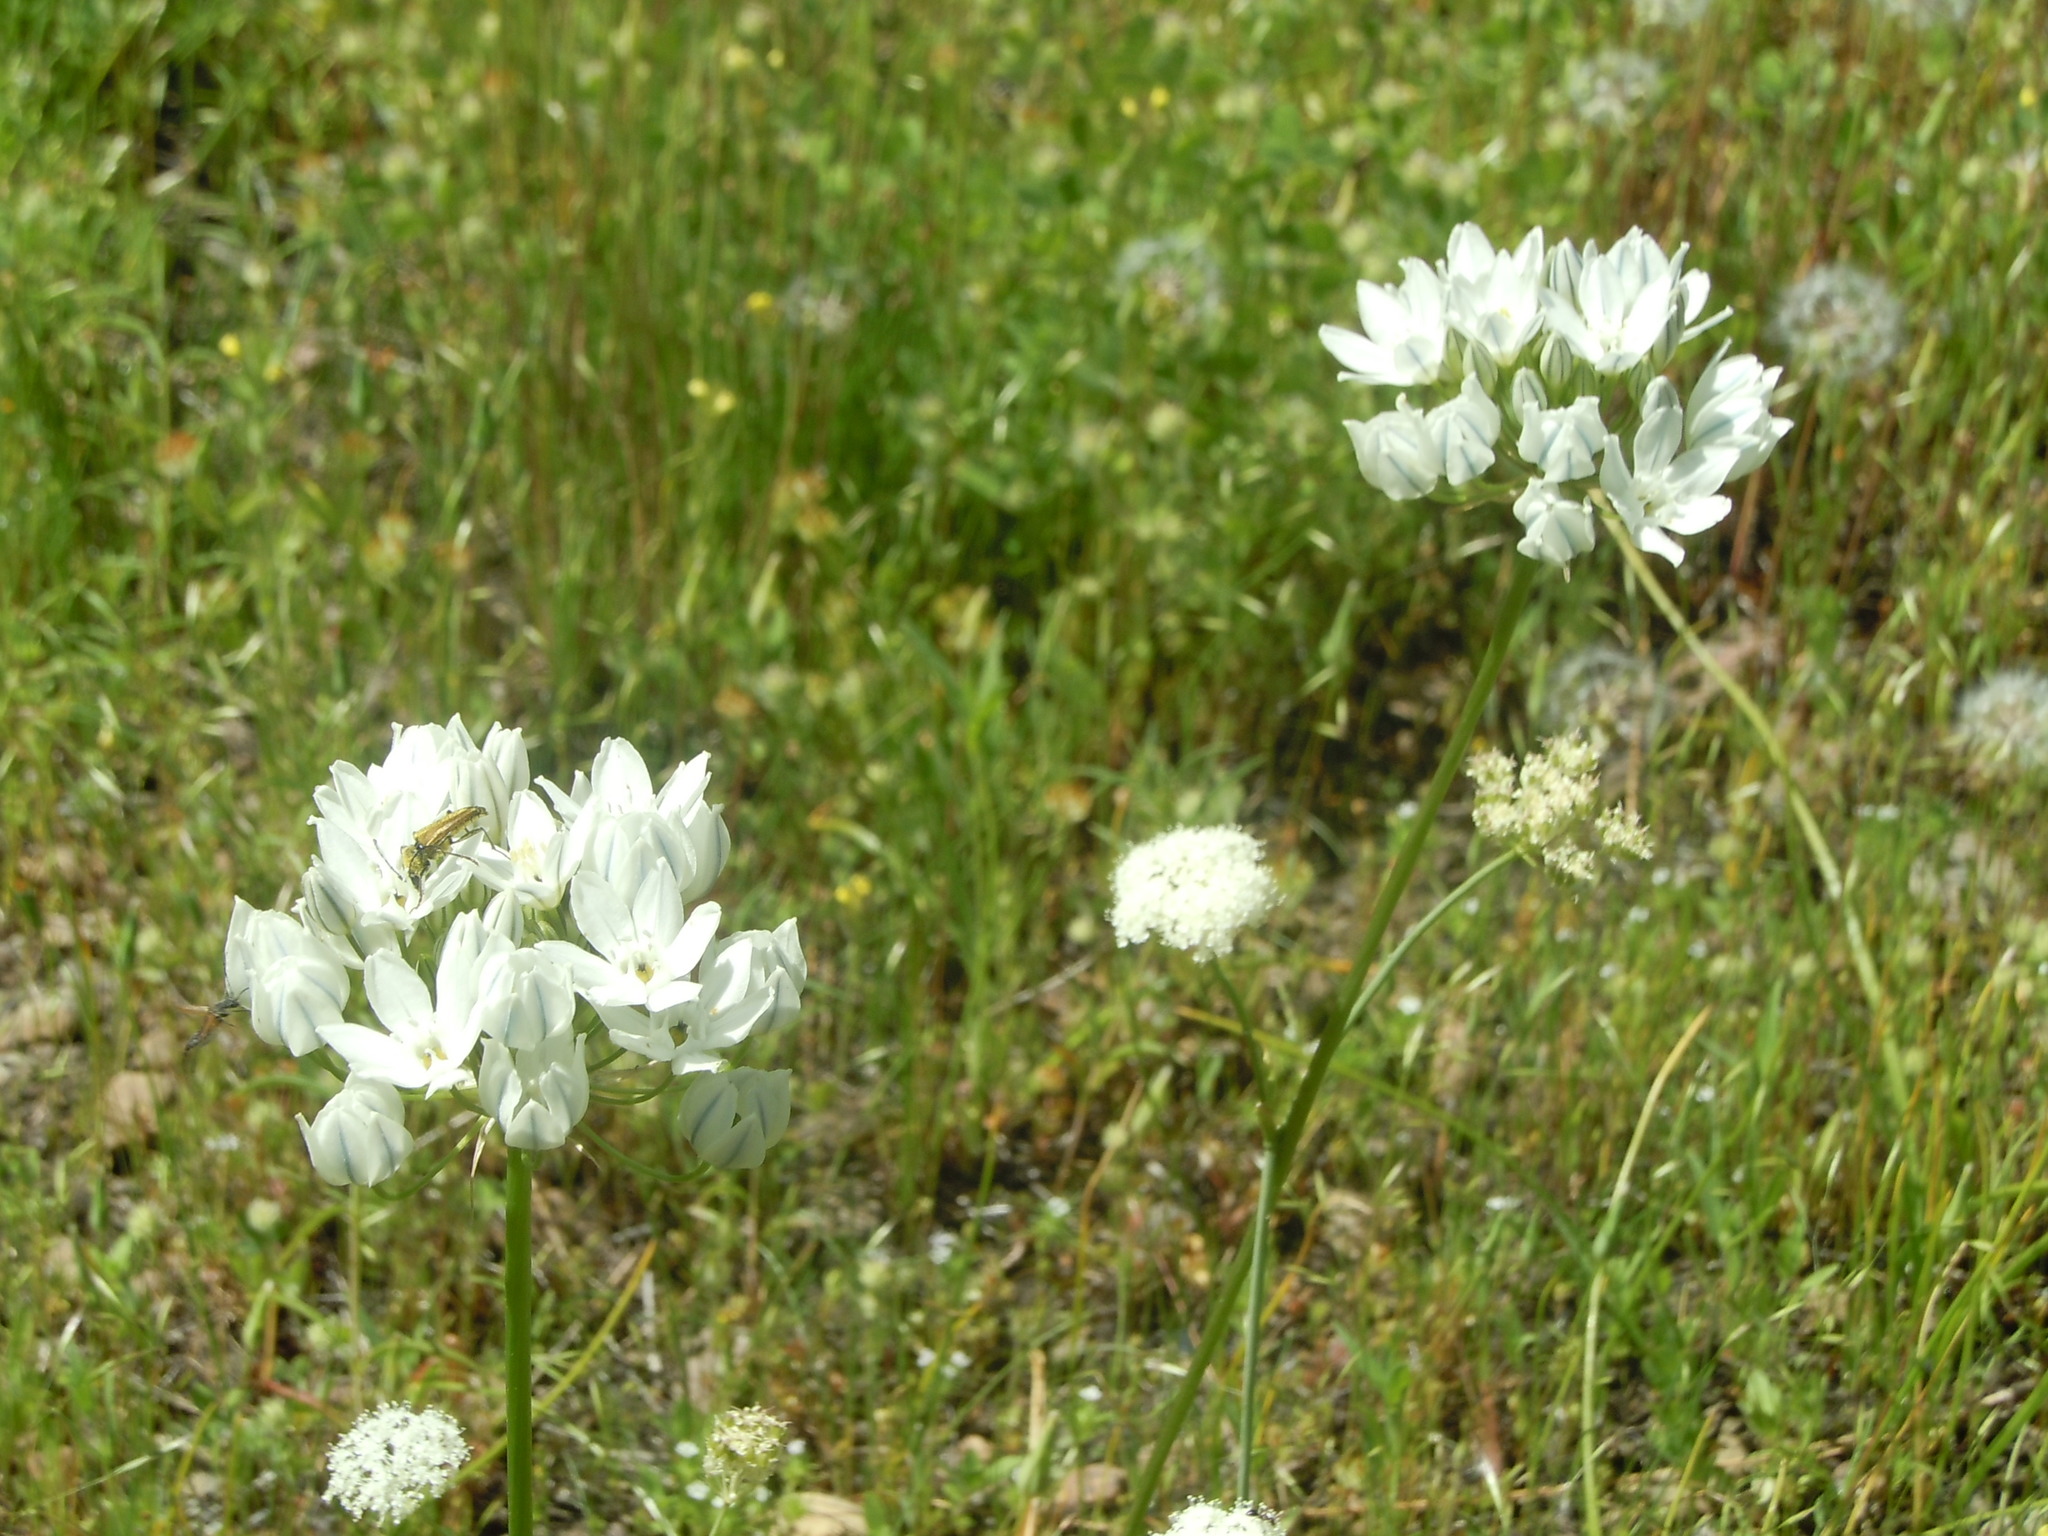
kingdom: Plantae
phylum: Tracheophyta
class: Liliopsida
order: Asparagales
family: Asparagaceae
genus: Triteleia
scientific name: Triteleia hyacinthina
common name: White brodiaea
